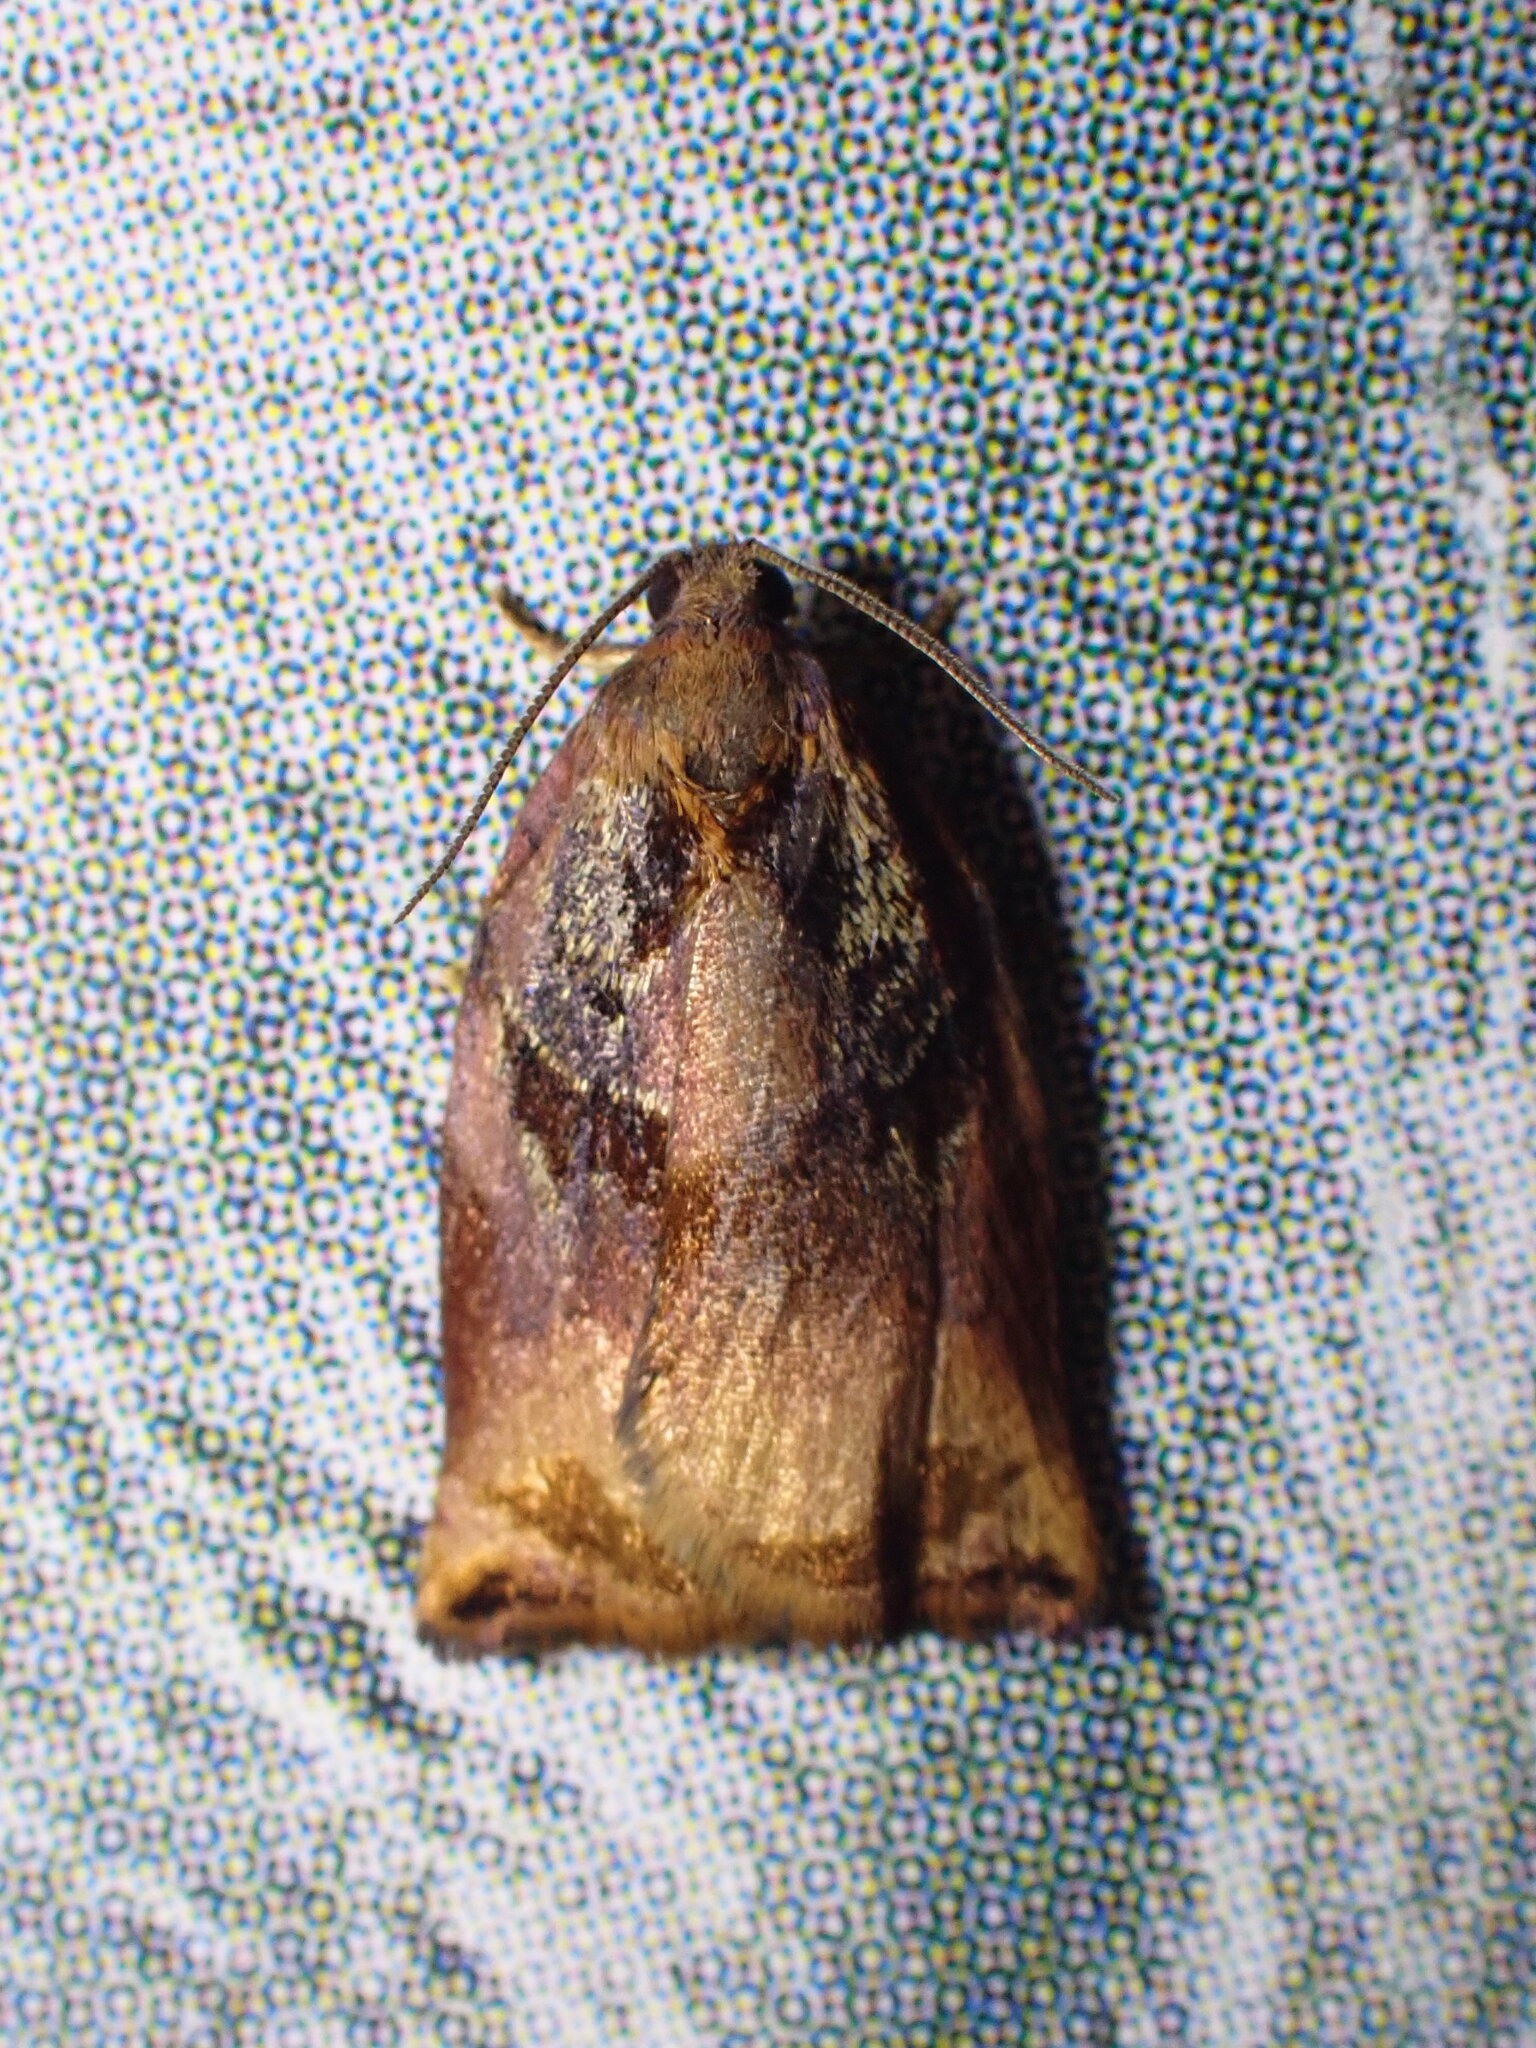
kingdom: Animalia
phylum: Arthropoda
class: Insecta
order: Lepidoptera
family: Tortricidae
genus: Archips
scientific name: Archips podana
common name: Large fruit-tree tortrix
